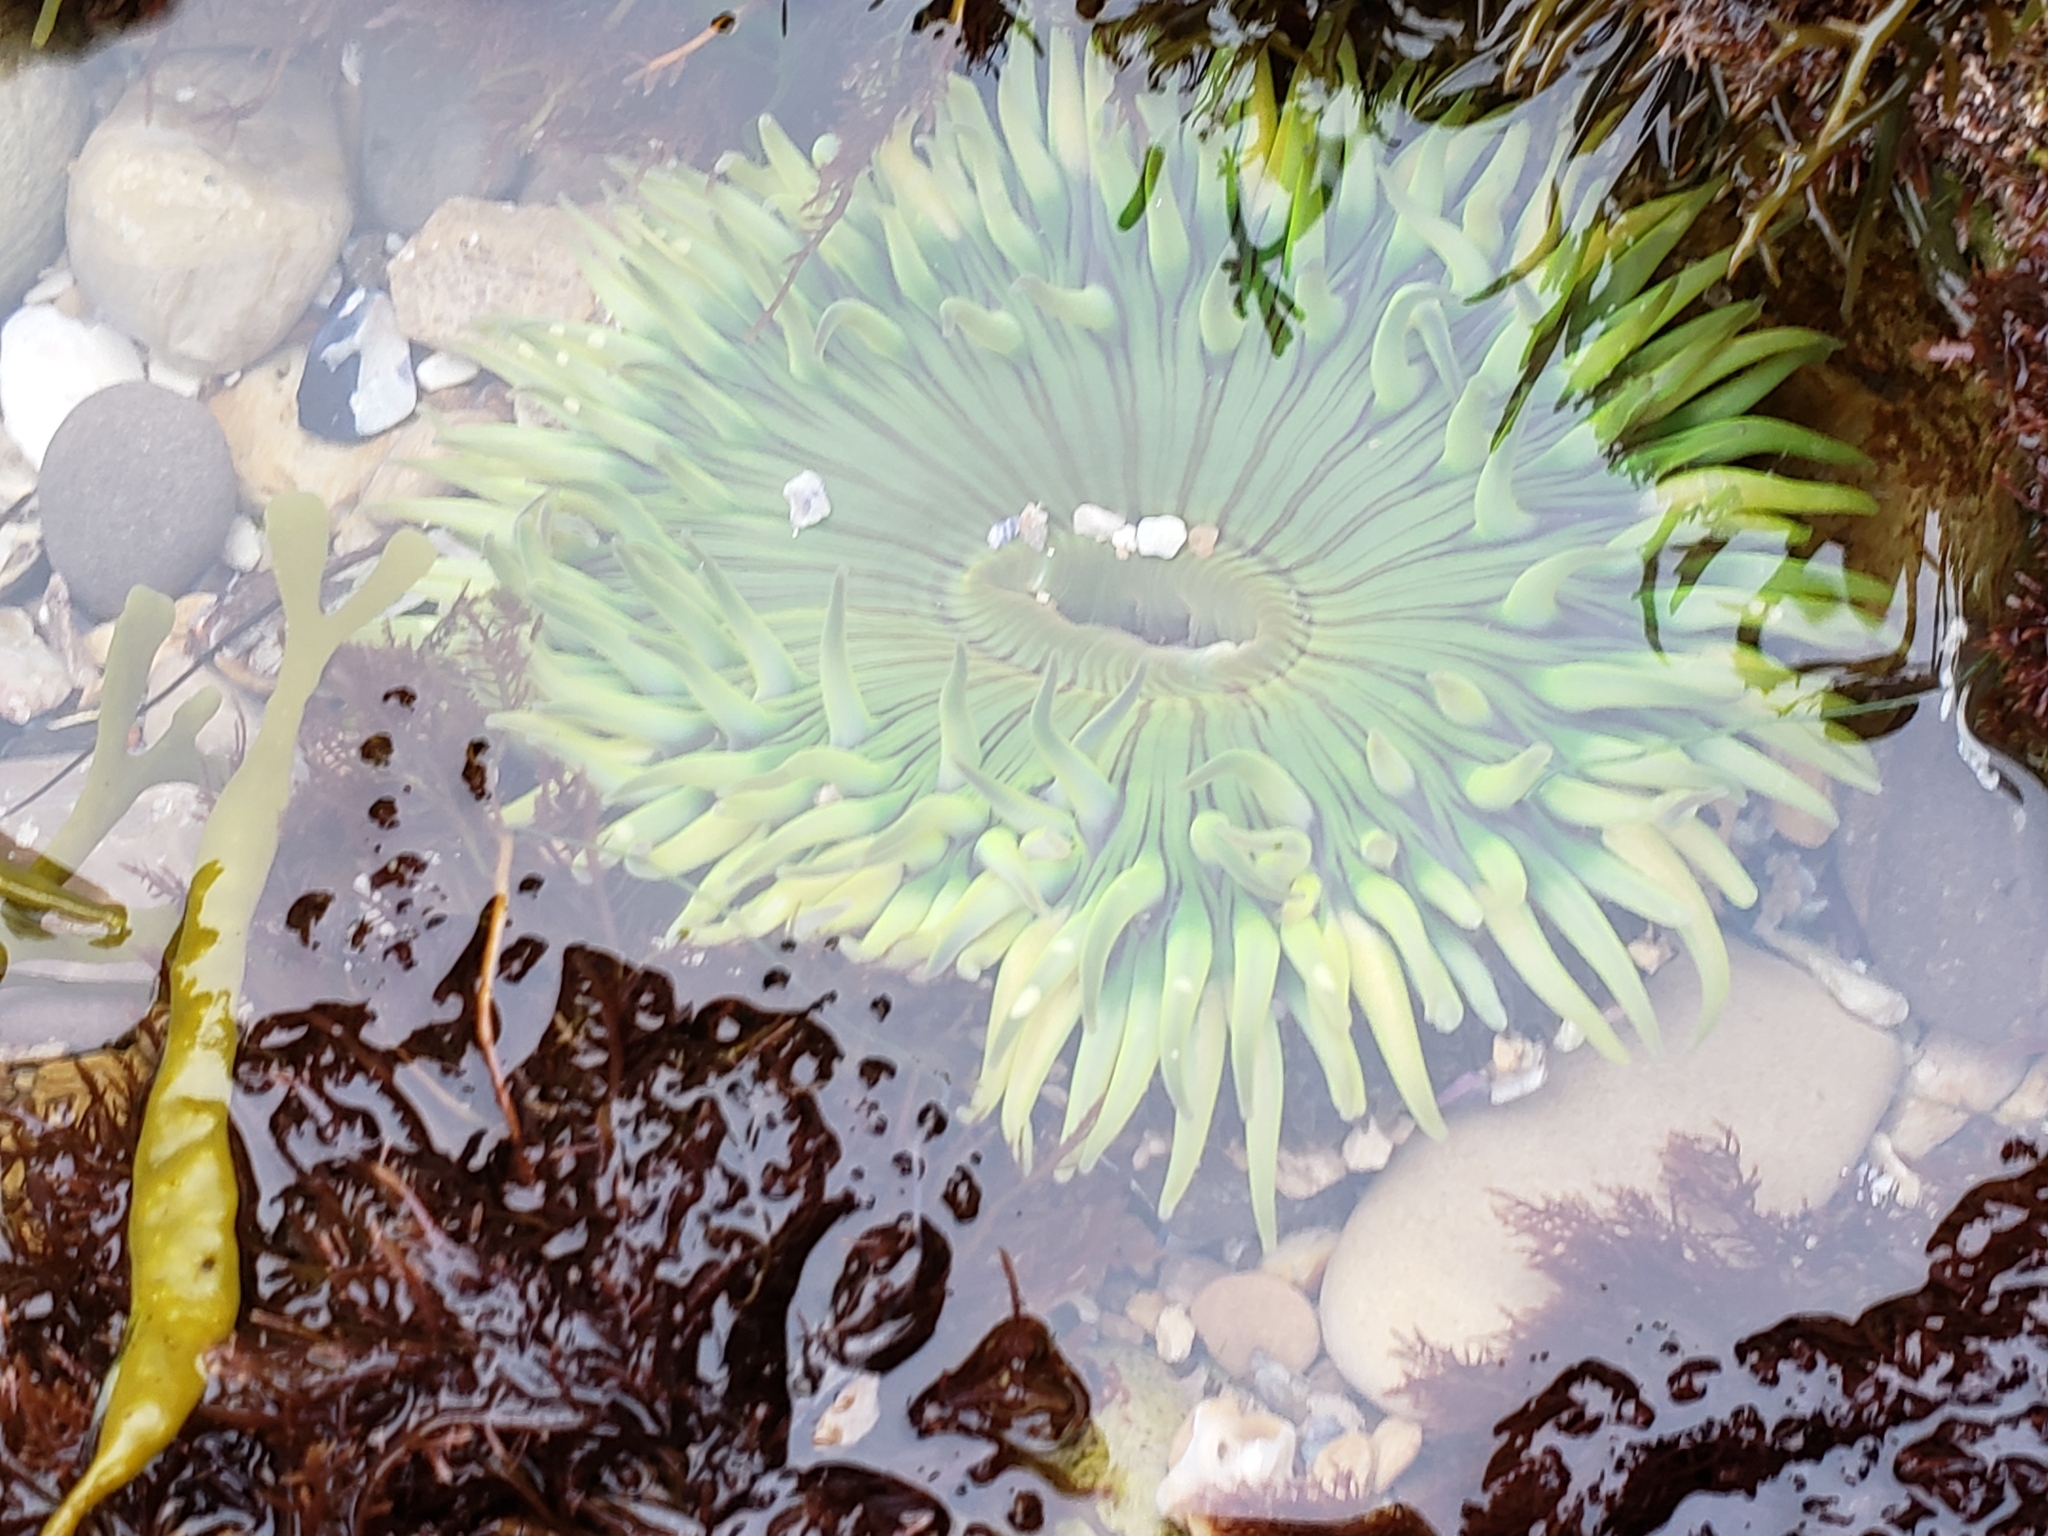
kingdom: Animalia
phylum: Cnidaria
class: Anthozoa
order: Actiniaria
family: Actiniidae
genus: Anthopleura
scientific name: Anthopleura sola
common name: Sun anemone
